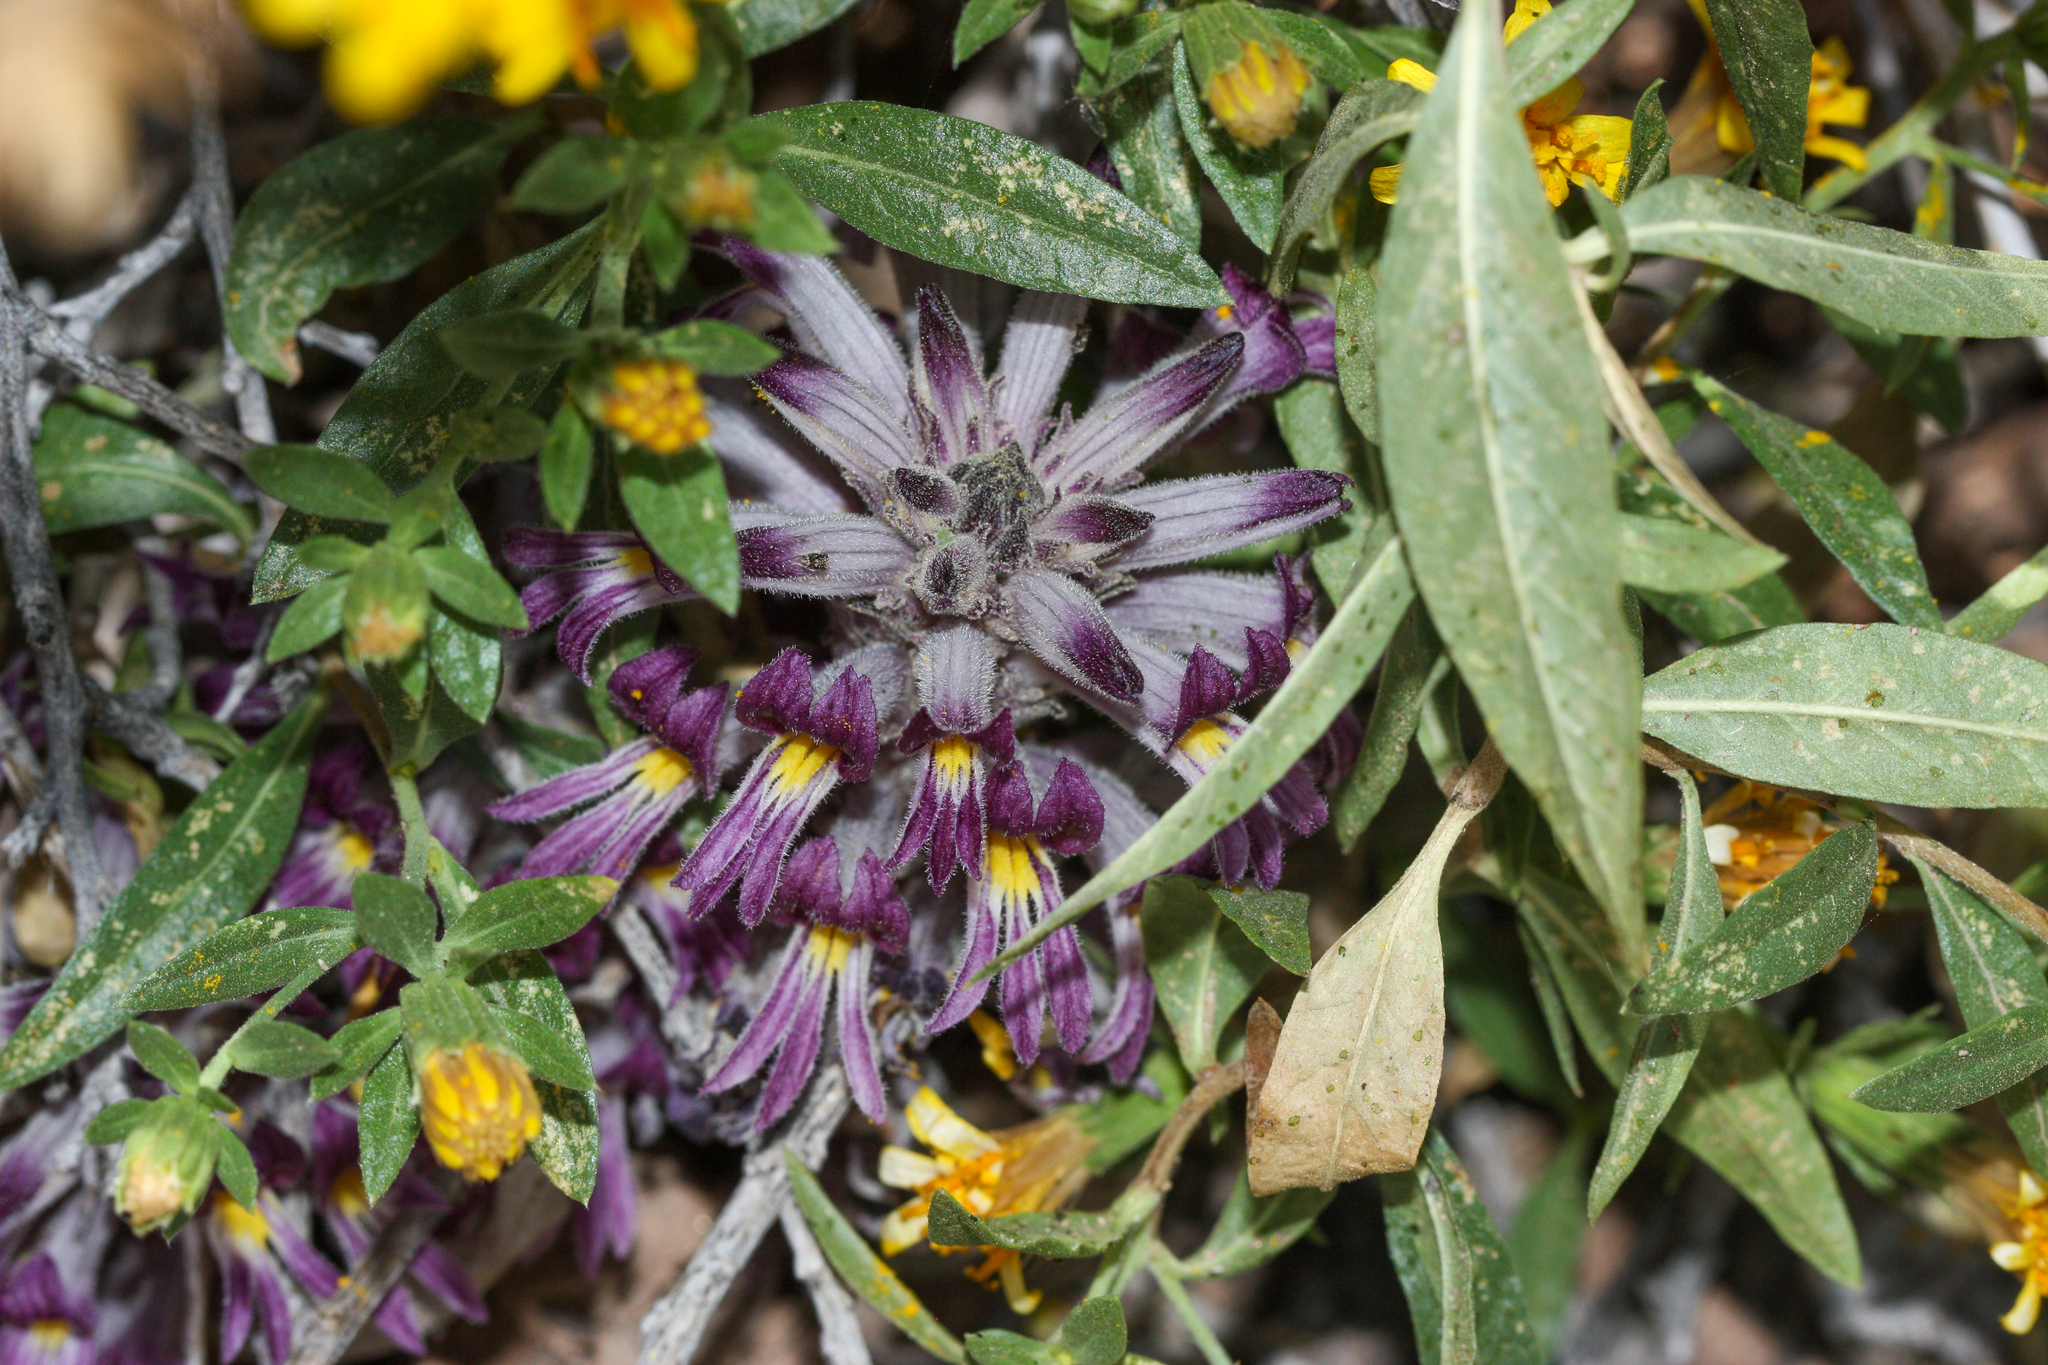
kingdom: Plantae
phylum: Tracheophyta
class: Magnoliopsida
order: Lamiales
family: Orobanchaceae
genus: Aphyllon
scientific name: Aphyllon cooperi
